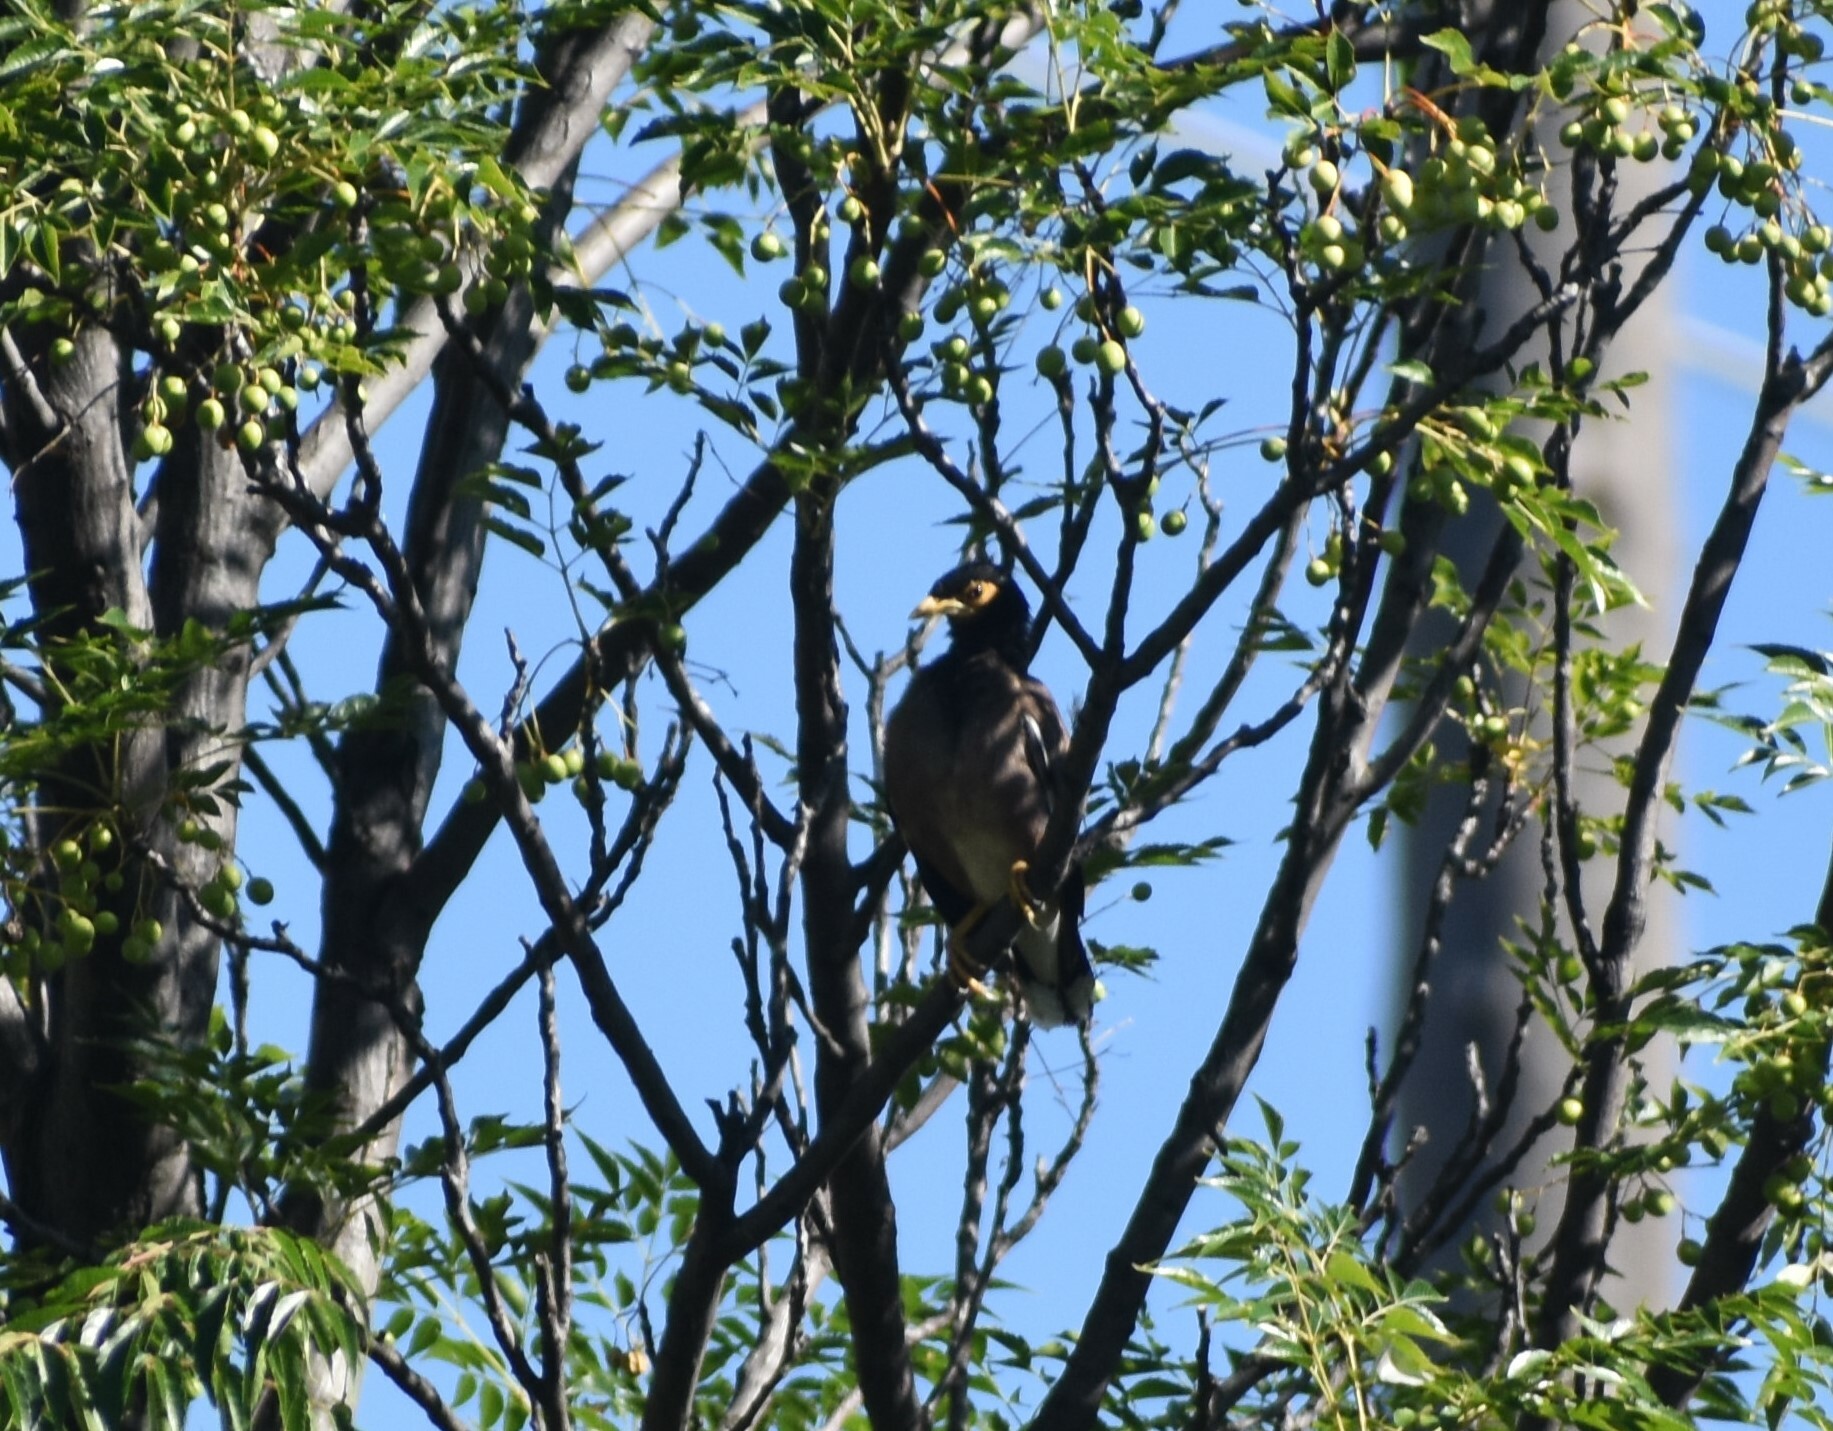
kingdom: Animalia
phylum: Chordata
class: Aves
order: Passeriformes
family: Sturnidae
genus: Acridotheres
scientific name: Acridotheres tristis
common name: Common myna
